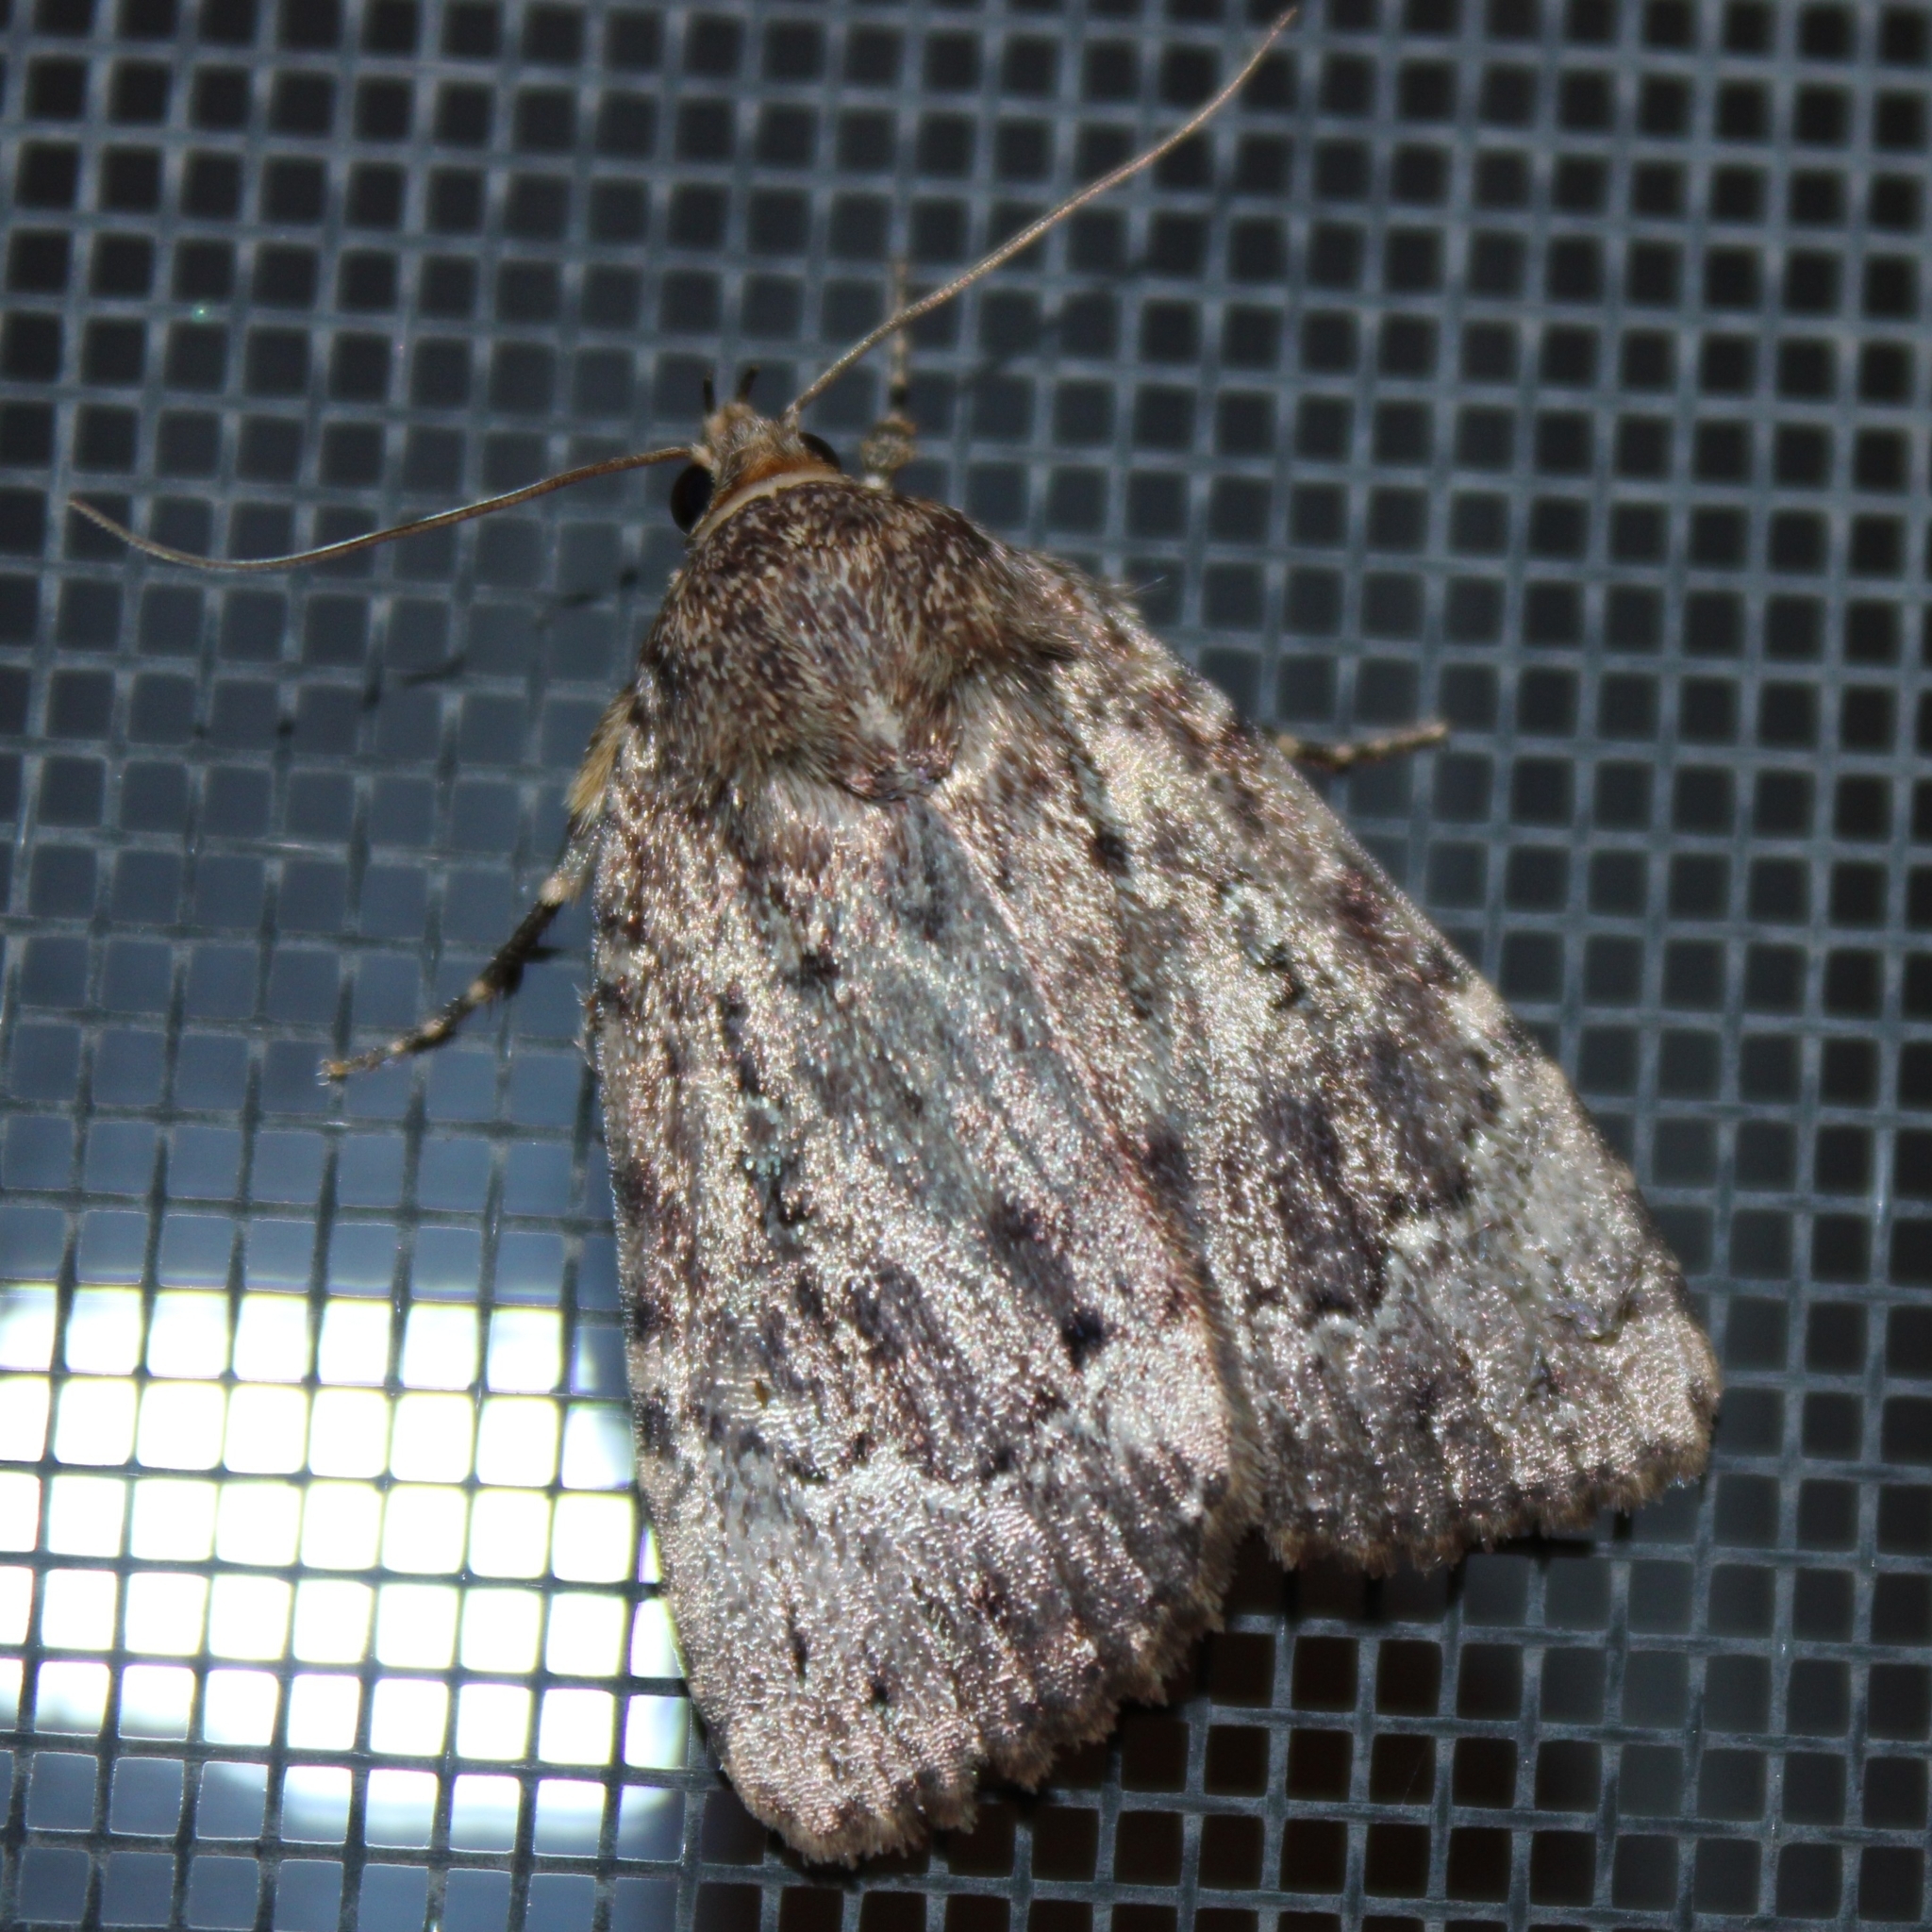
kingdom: Animalia
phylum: Arthropoda
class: Insecta
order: Lepidoptera
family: Noctuidae
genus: Amphipyra
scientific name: Amphipyra pyramidoides
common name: American copper underwing
